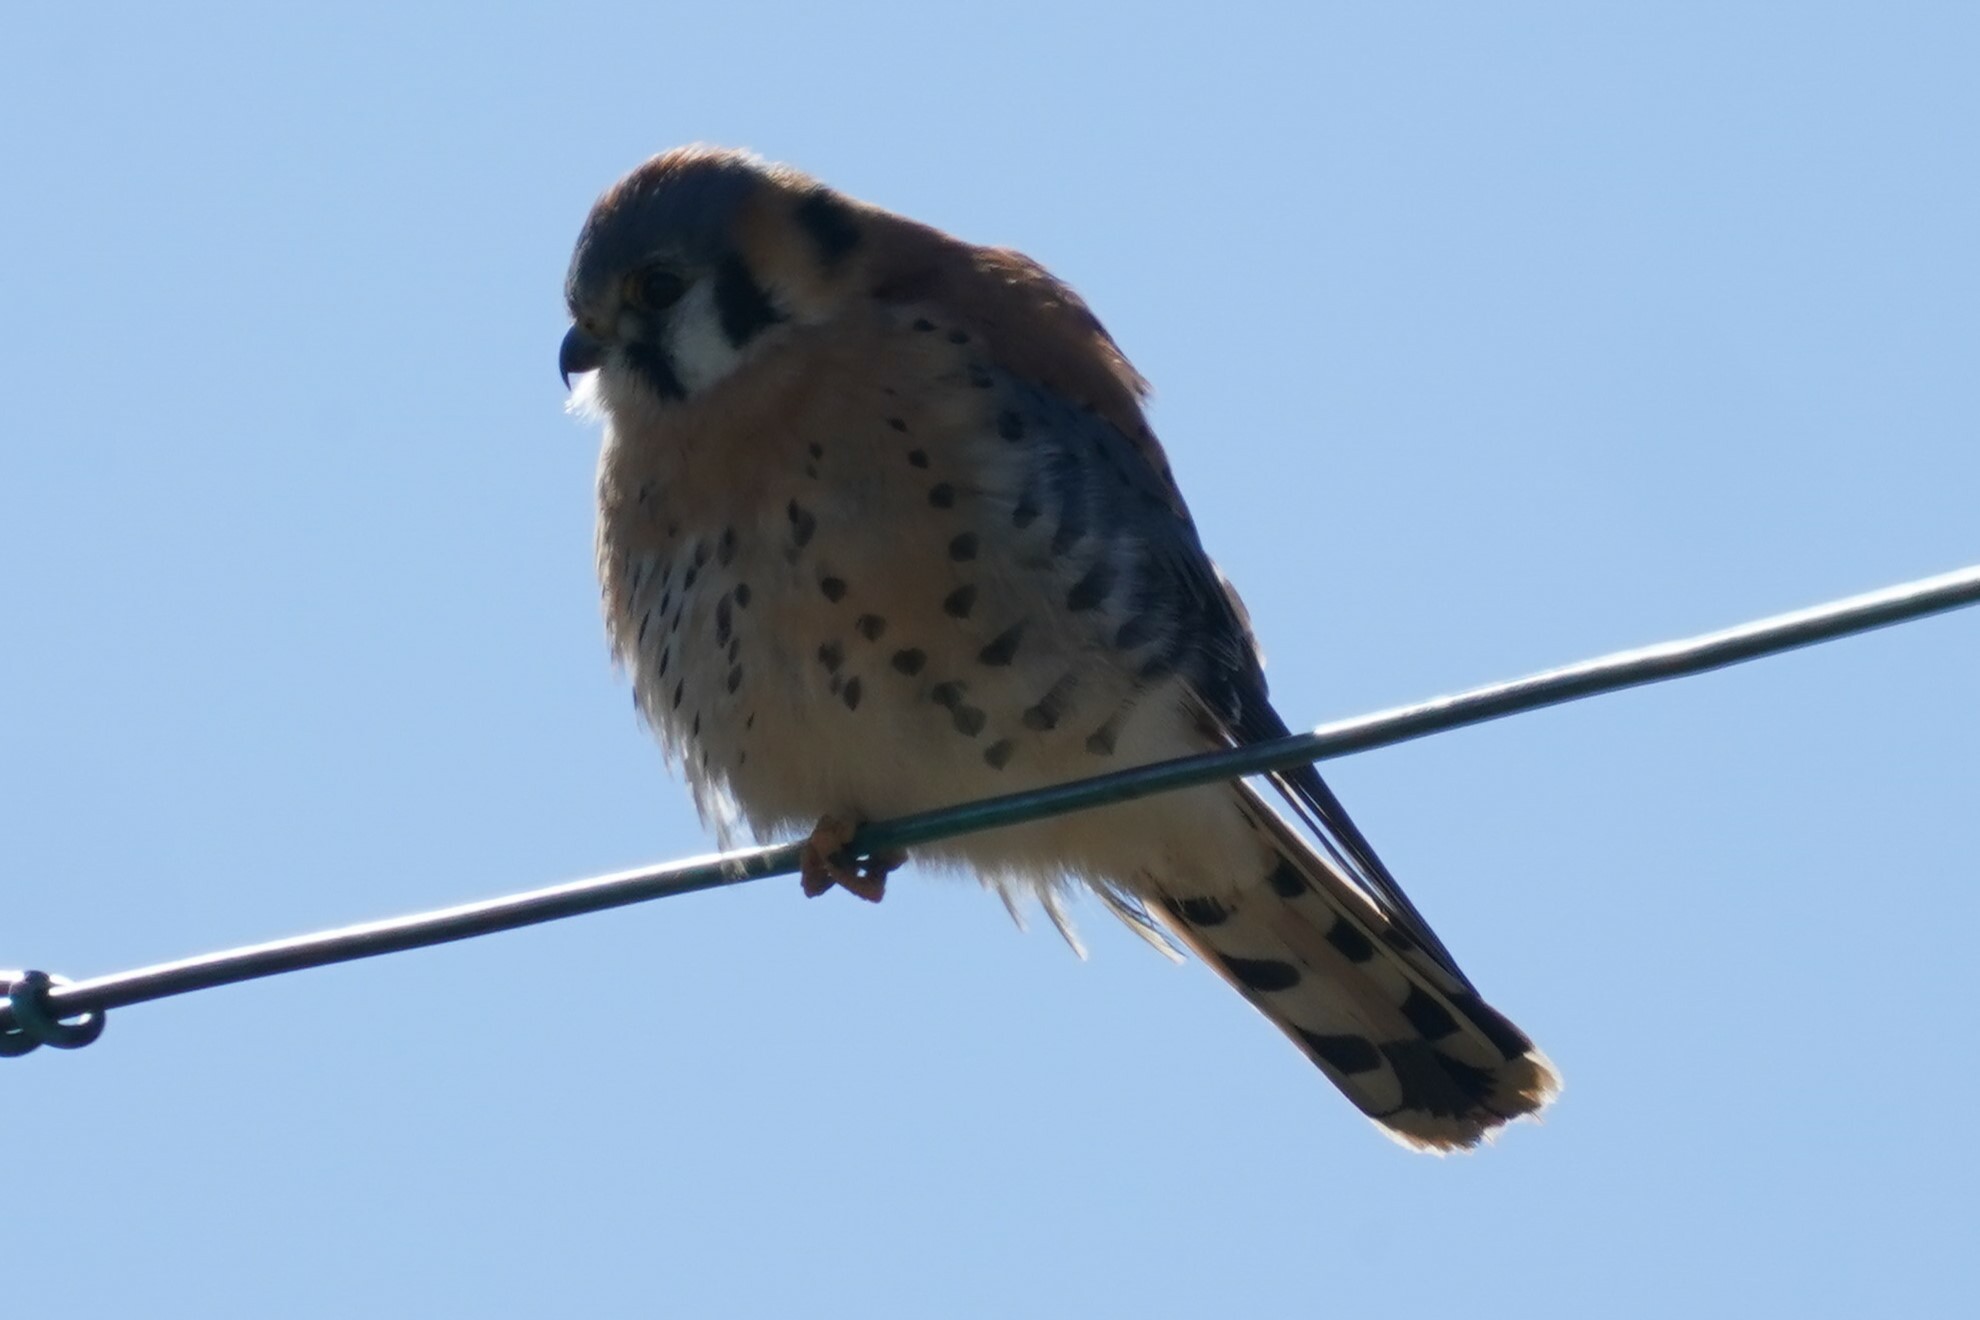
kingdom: Animalia
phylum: Chordata
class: Aves
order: Falconiformes
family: Falconidae
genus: Falco
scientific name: Falco sparverius
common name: American kestrel
